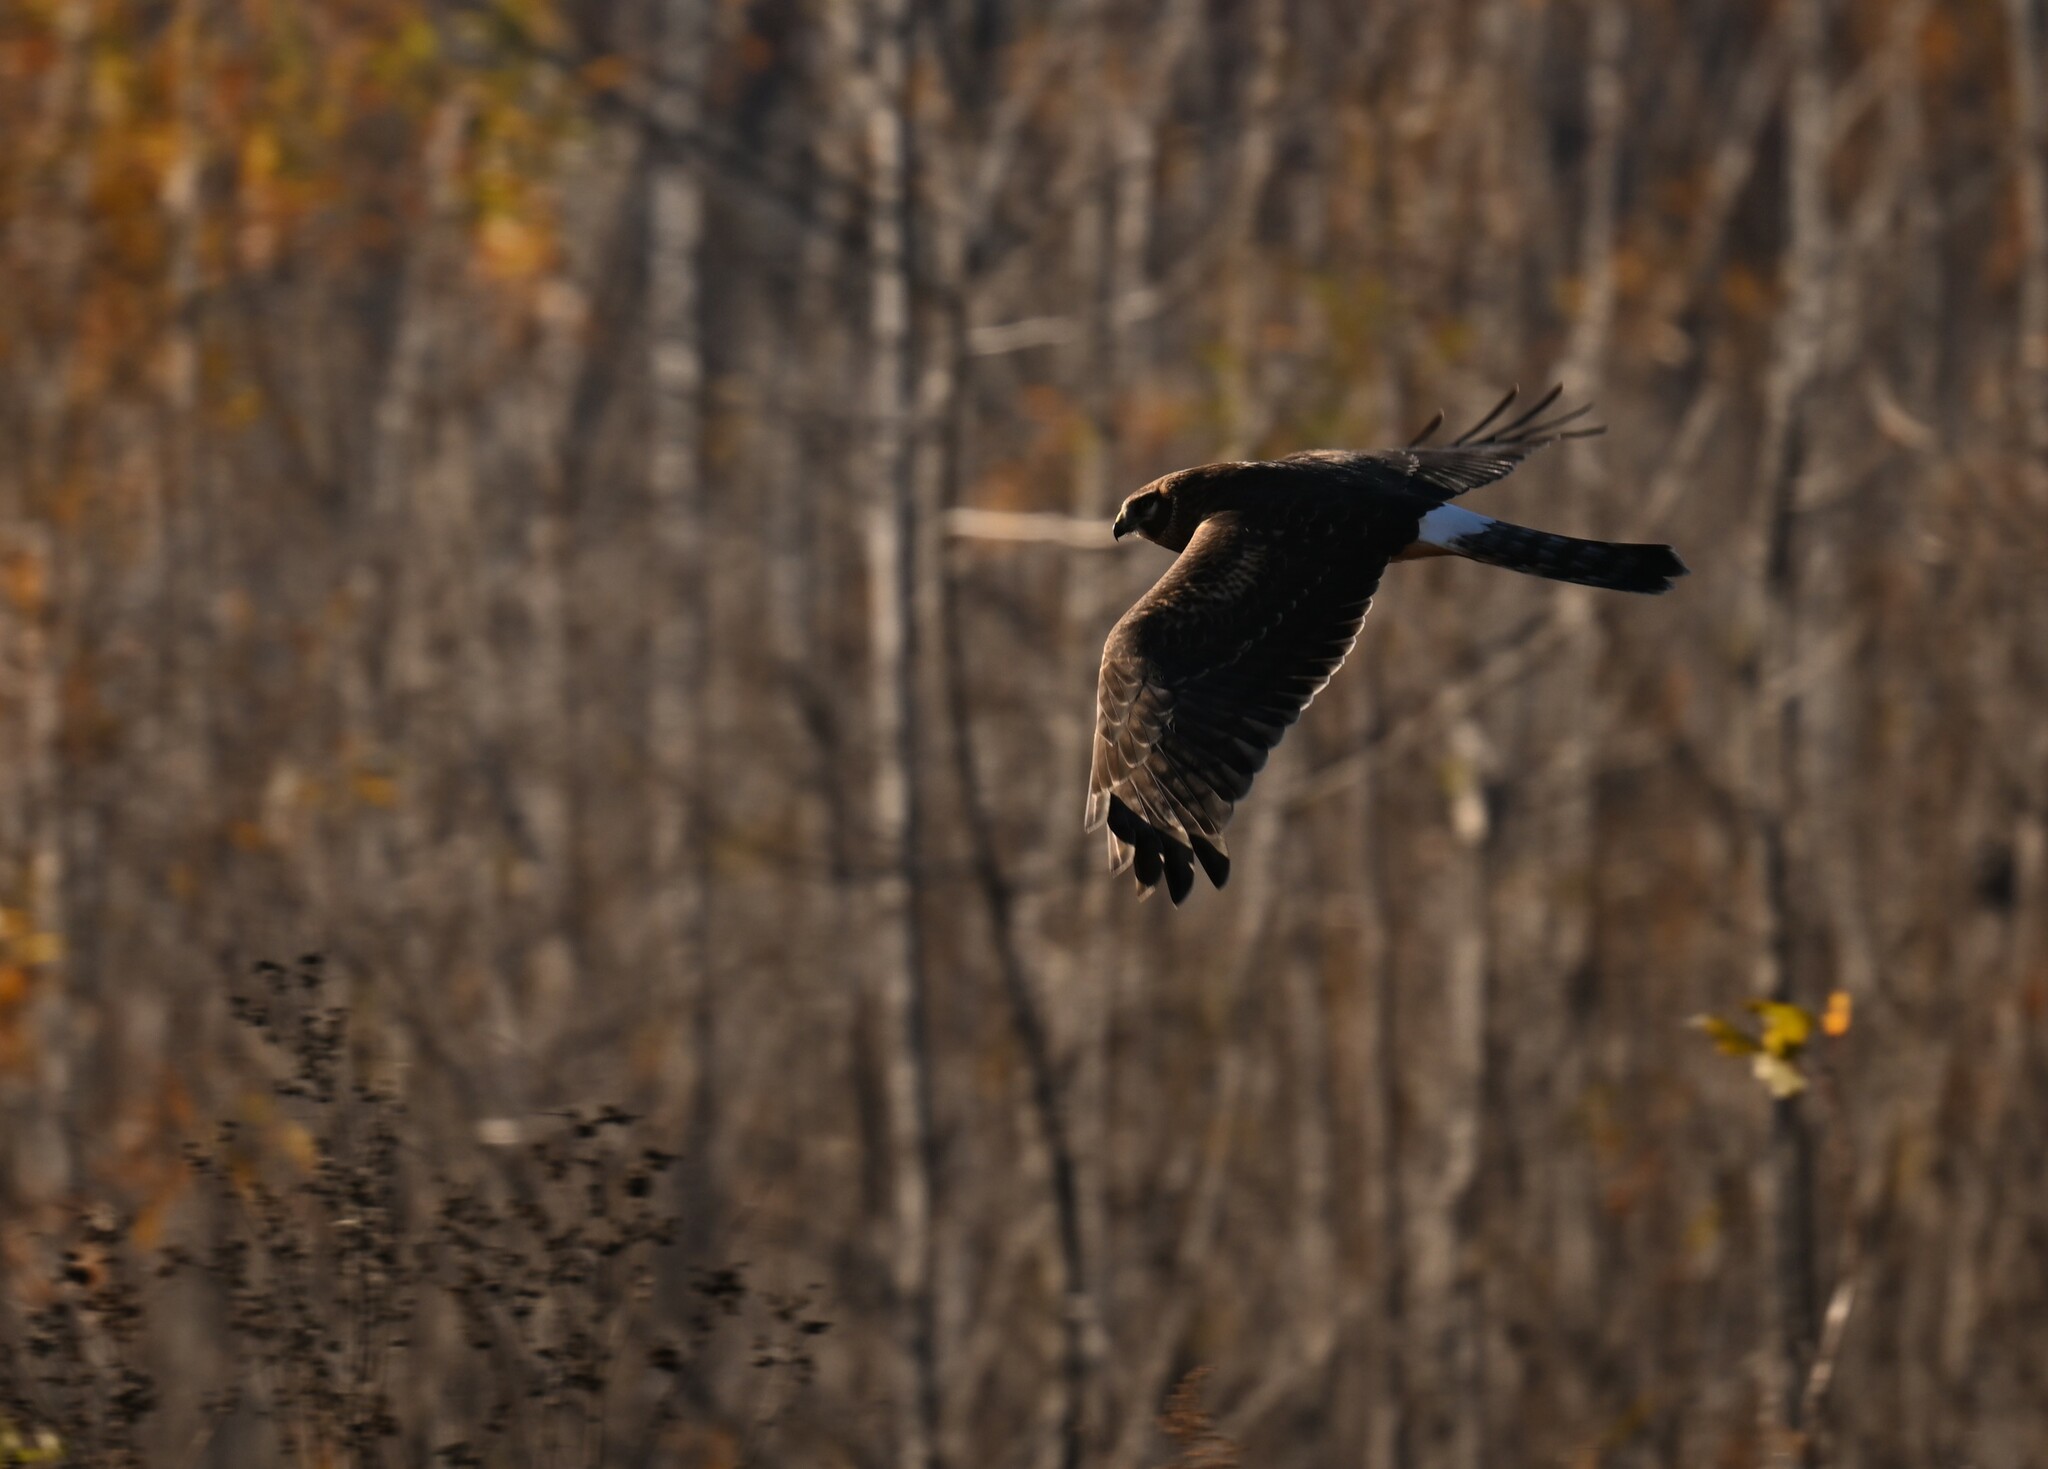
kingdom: Animalia
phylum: Chordata
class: Aves
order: Accipitriformes
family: Accipitridae
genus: Circus
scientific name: Circus cyaneus
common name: Hen harrier
